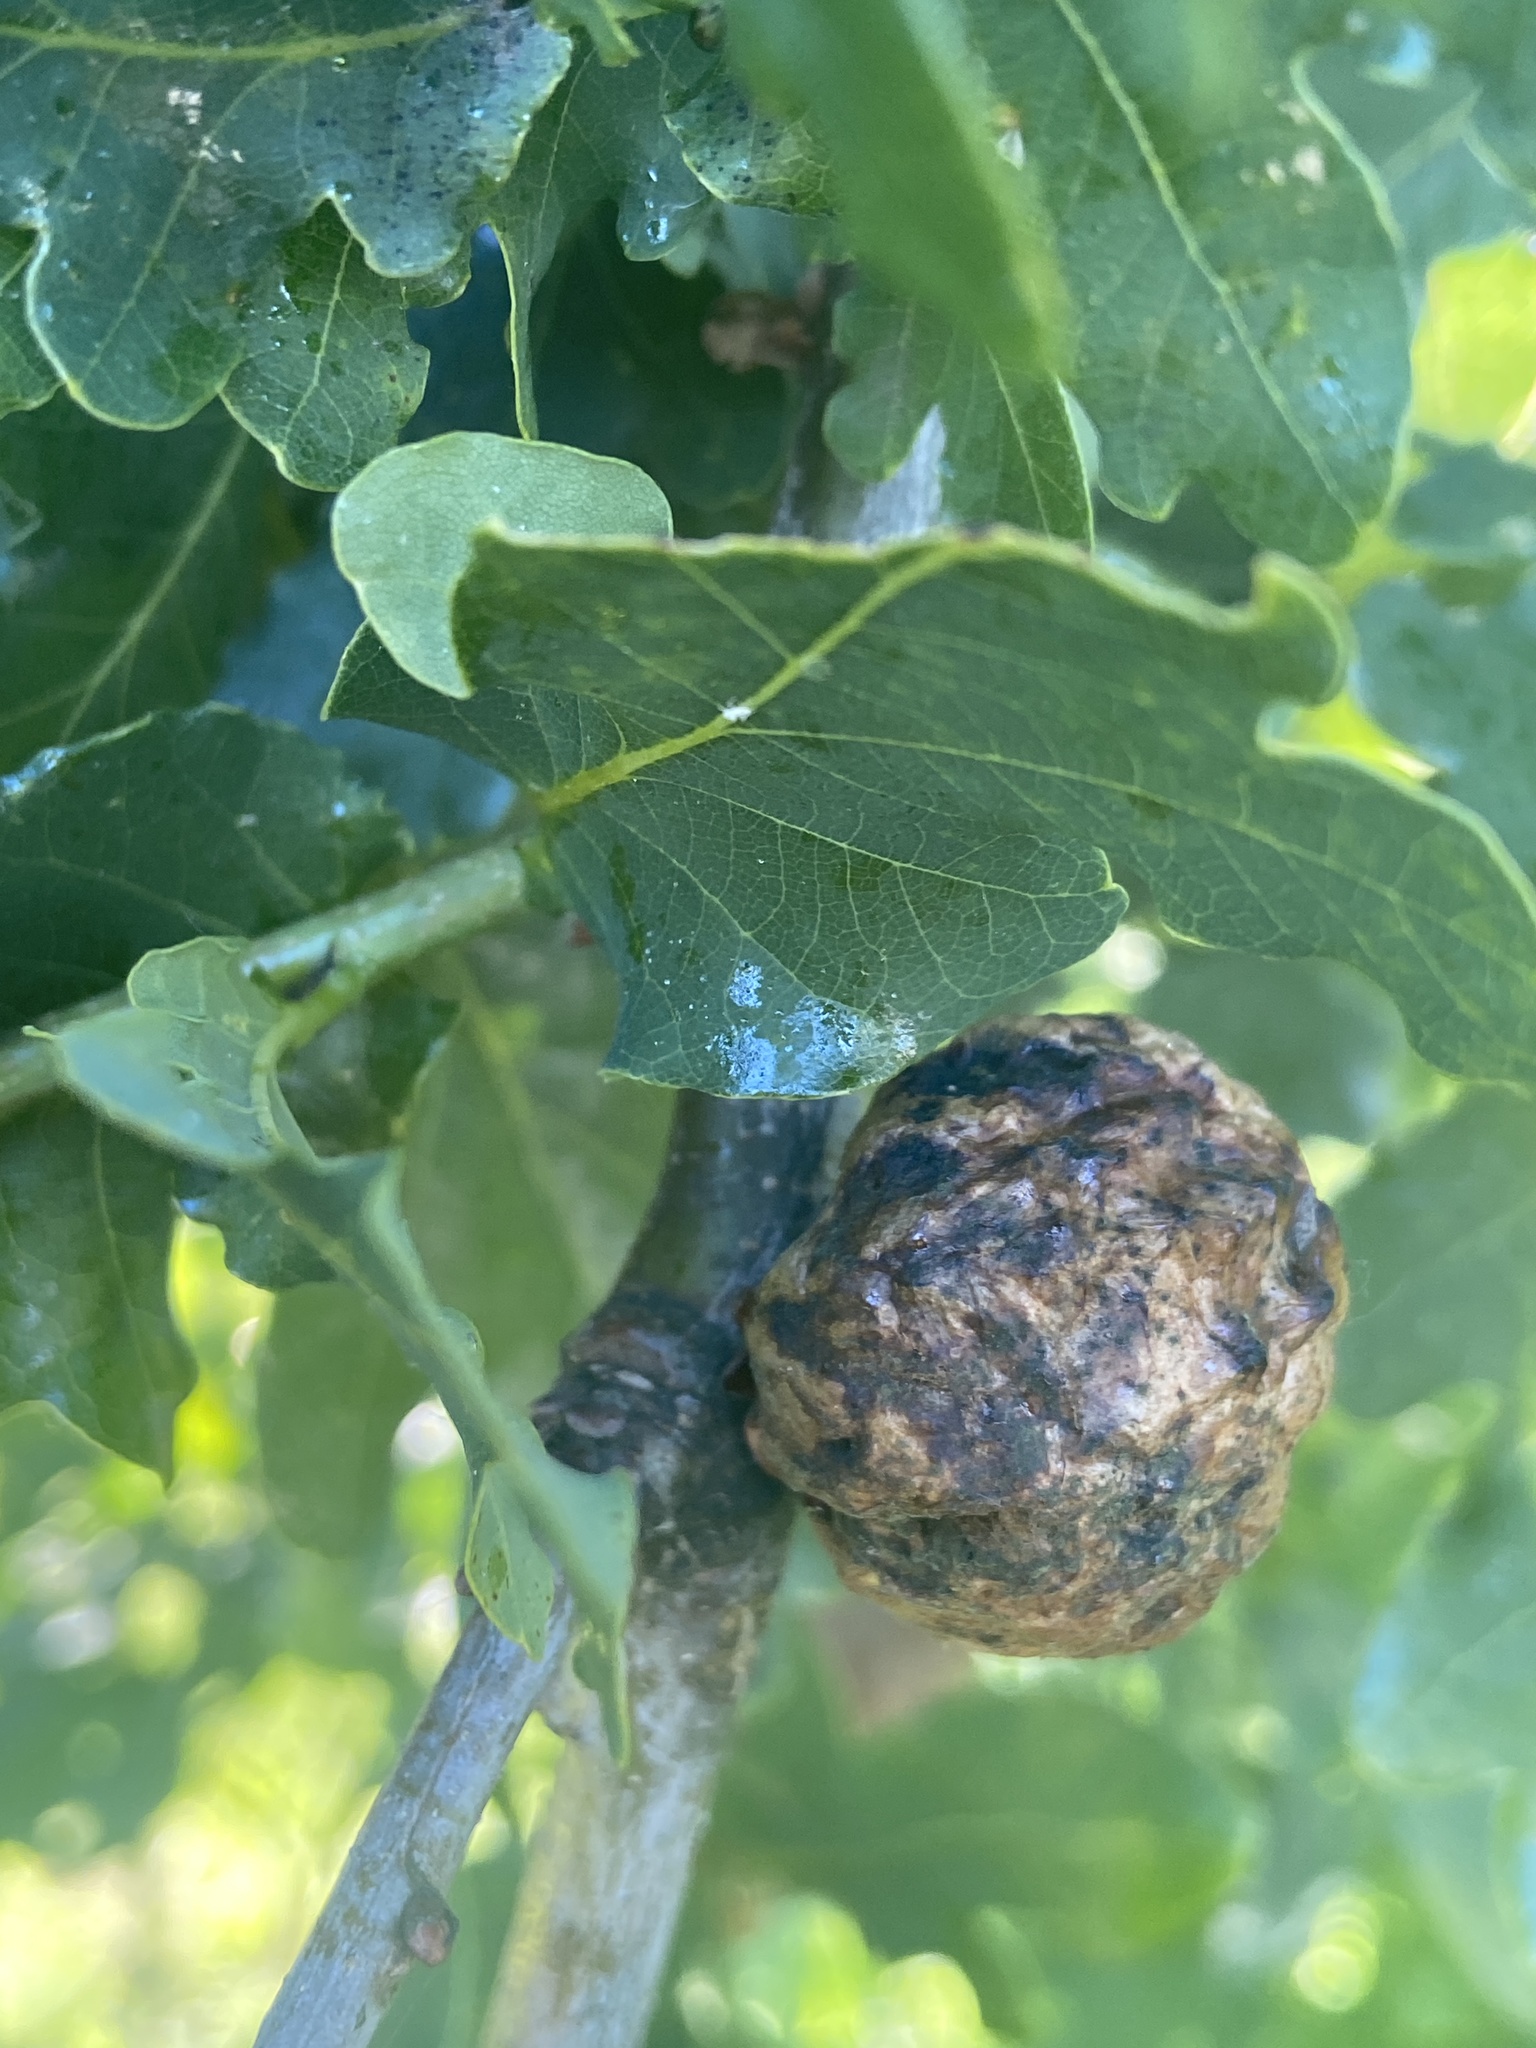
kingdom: Animalia
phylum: Arthropoda
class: Insecta
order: Hymenoptera
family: Cynipidae
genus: Biorhiza
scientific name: Biorhiza pallida
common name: Oak apple
